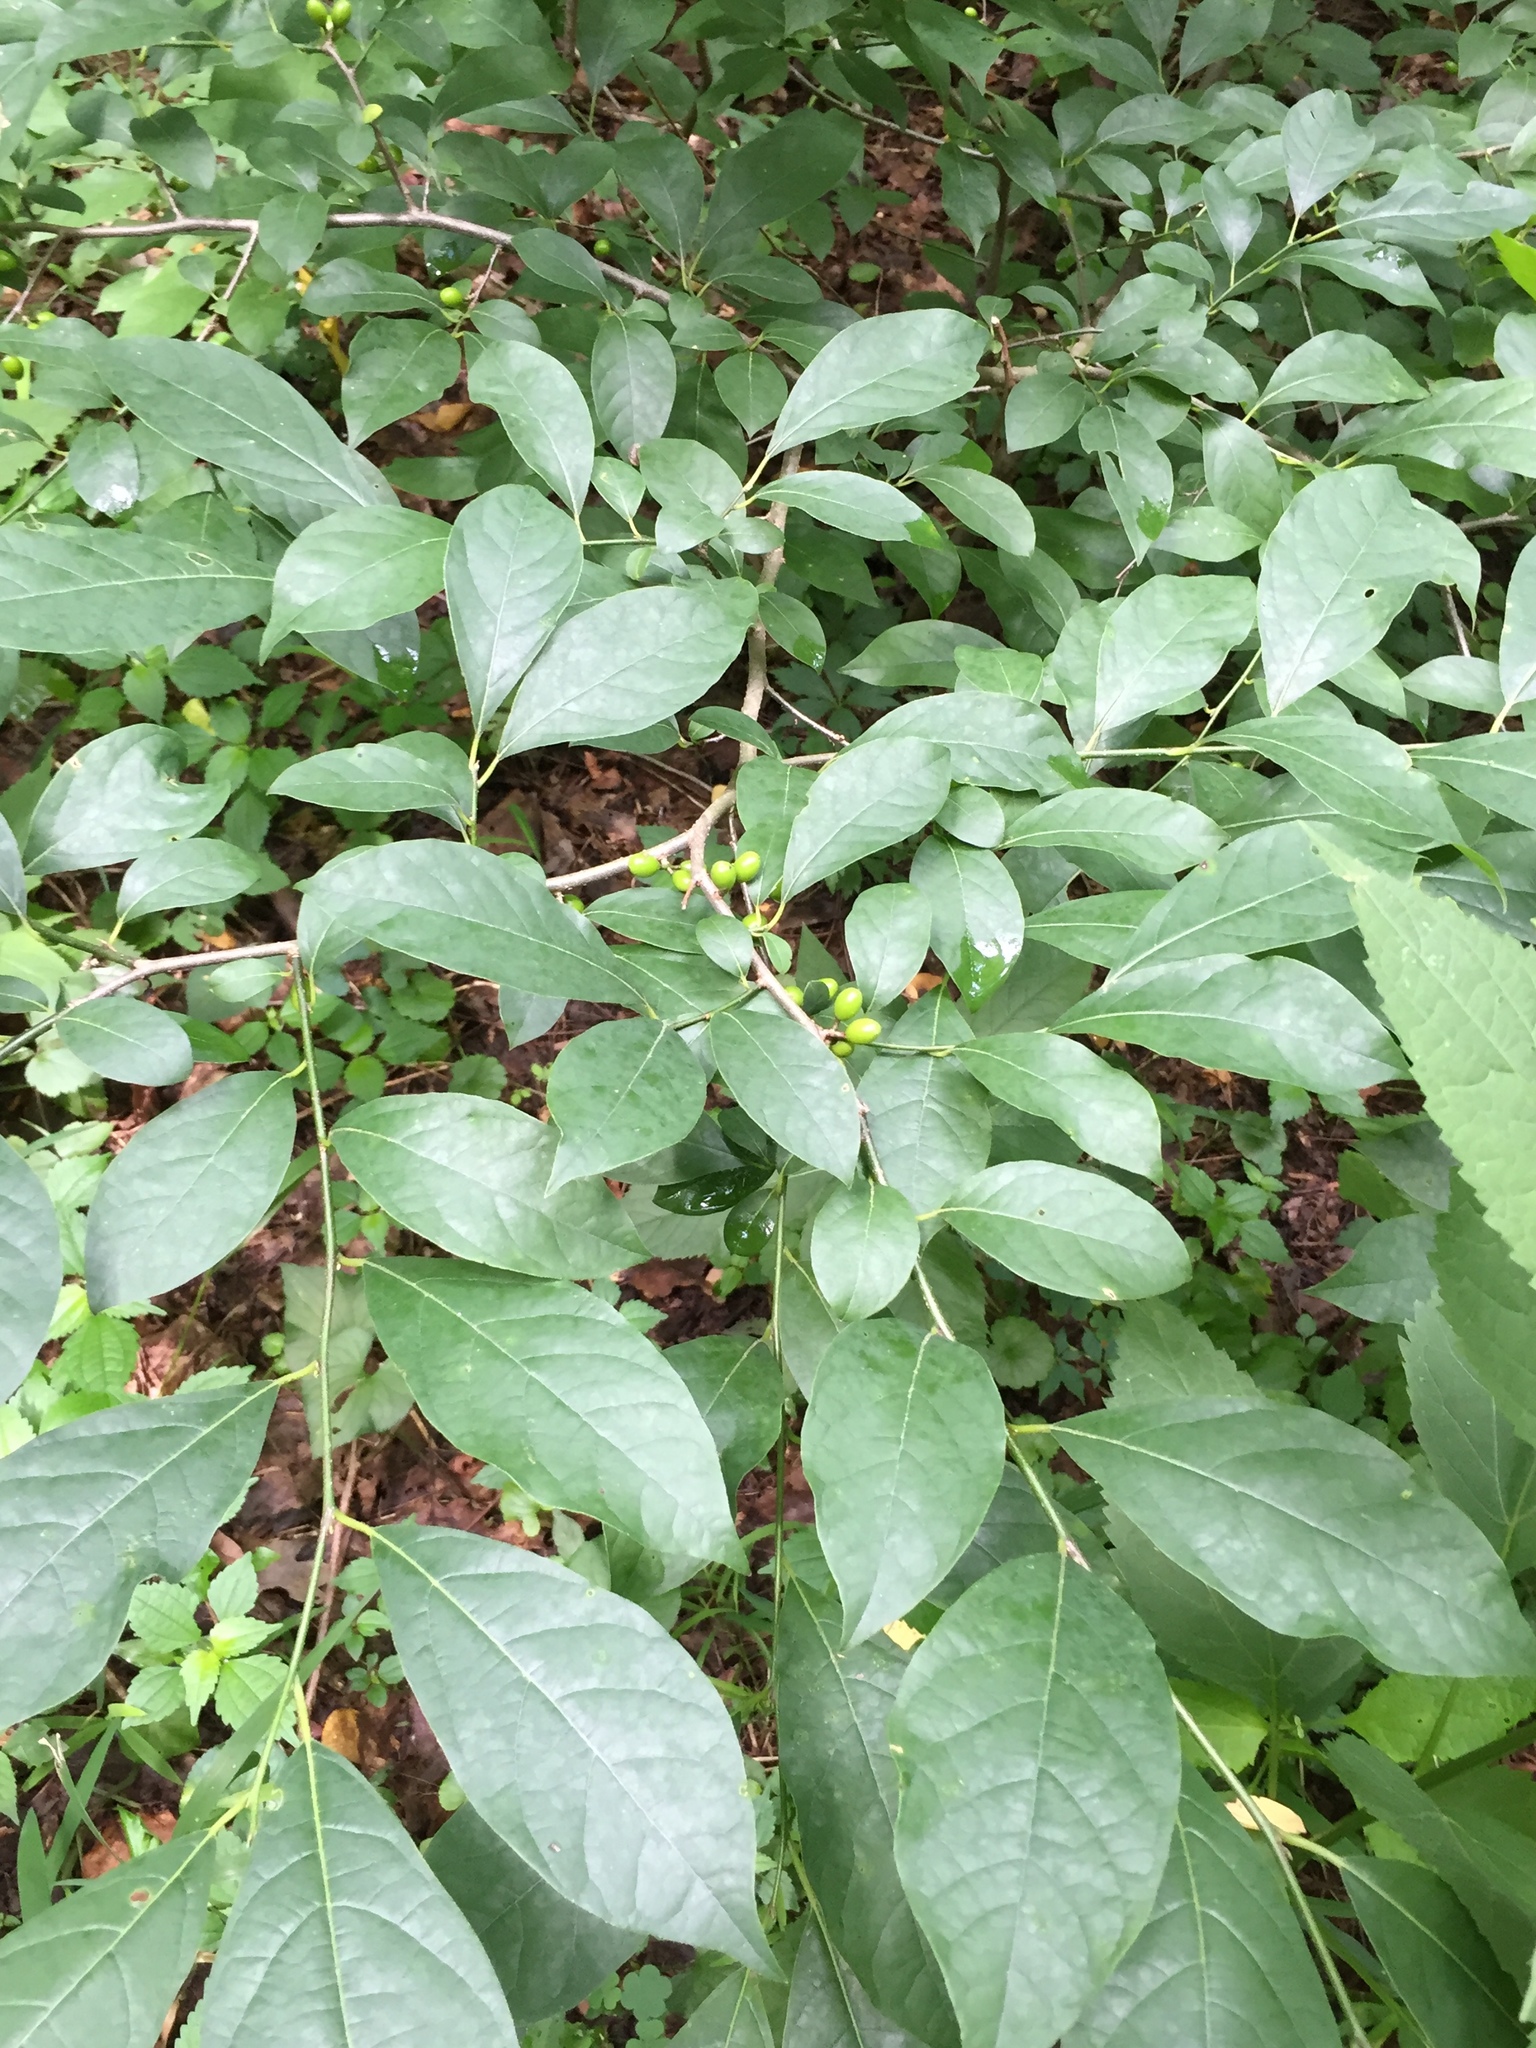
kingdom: Plantae
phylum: Tracheophyta
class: Magnoliopsida
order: Laurales
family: Lauraceae
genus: Lindera
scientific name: Lindera benzoin
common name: Spicebush
